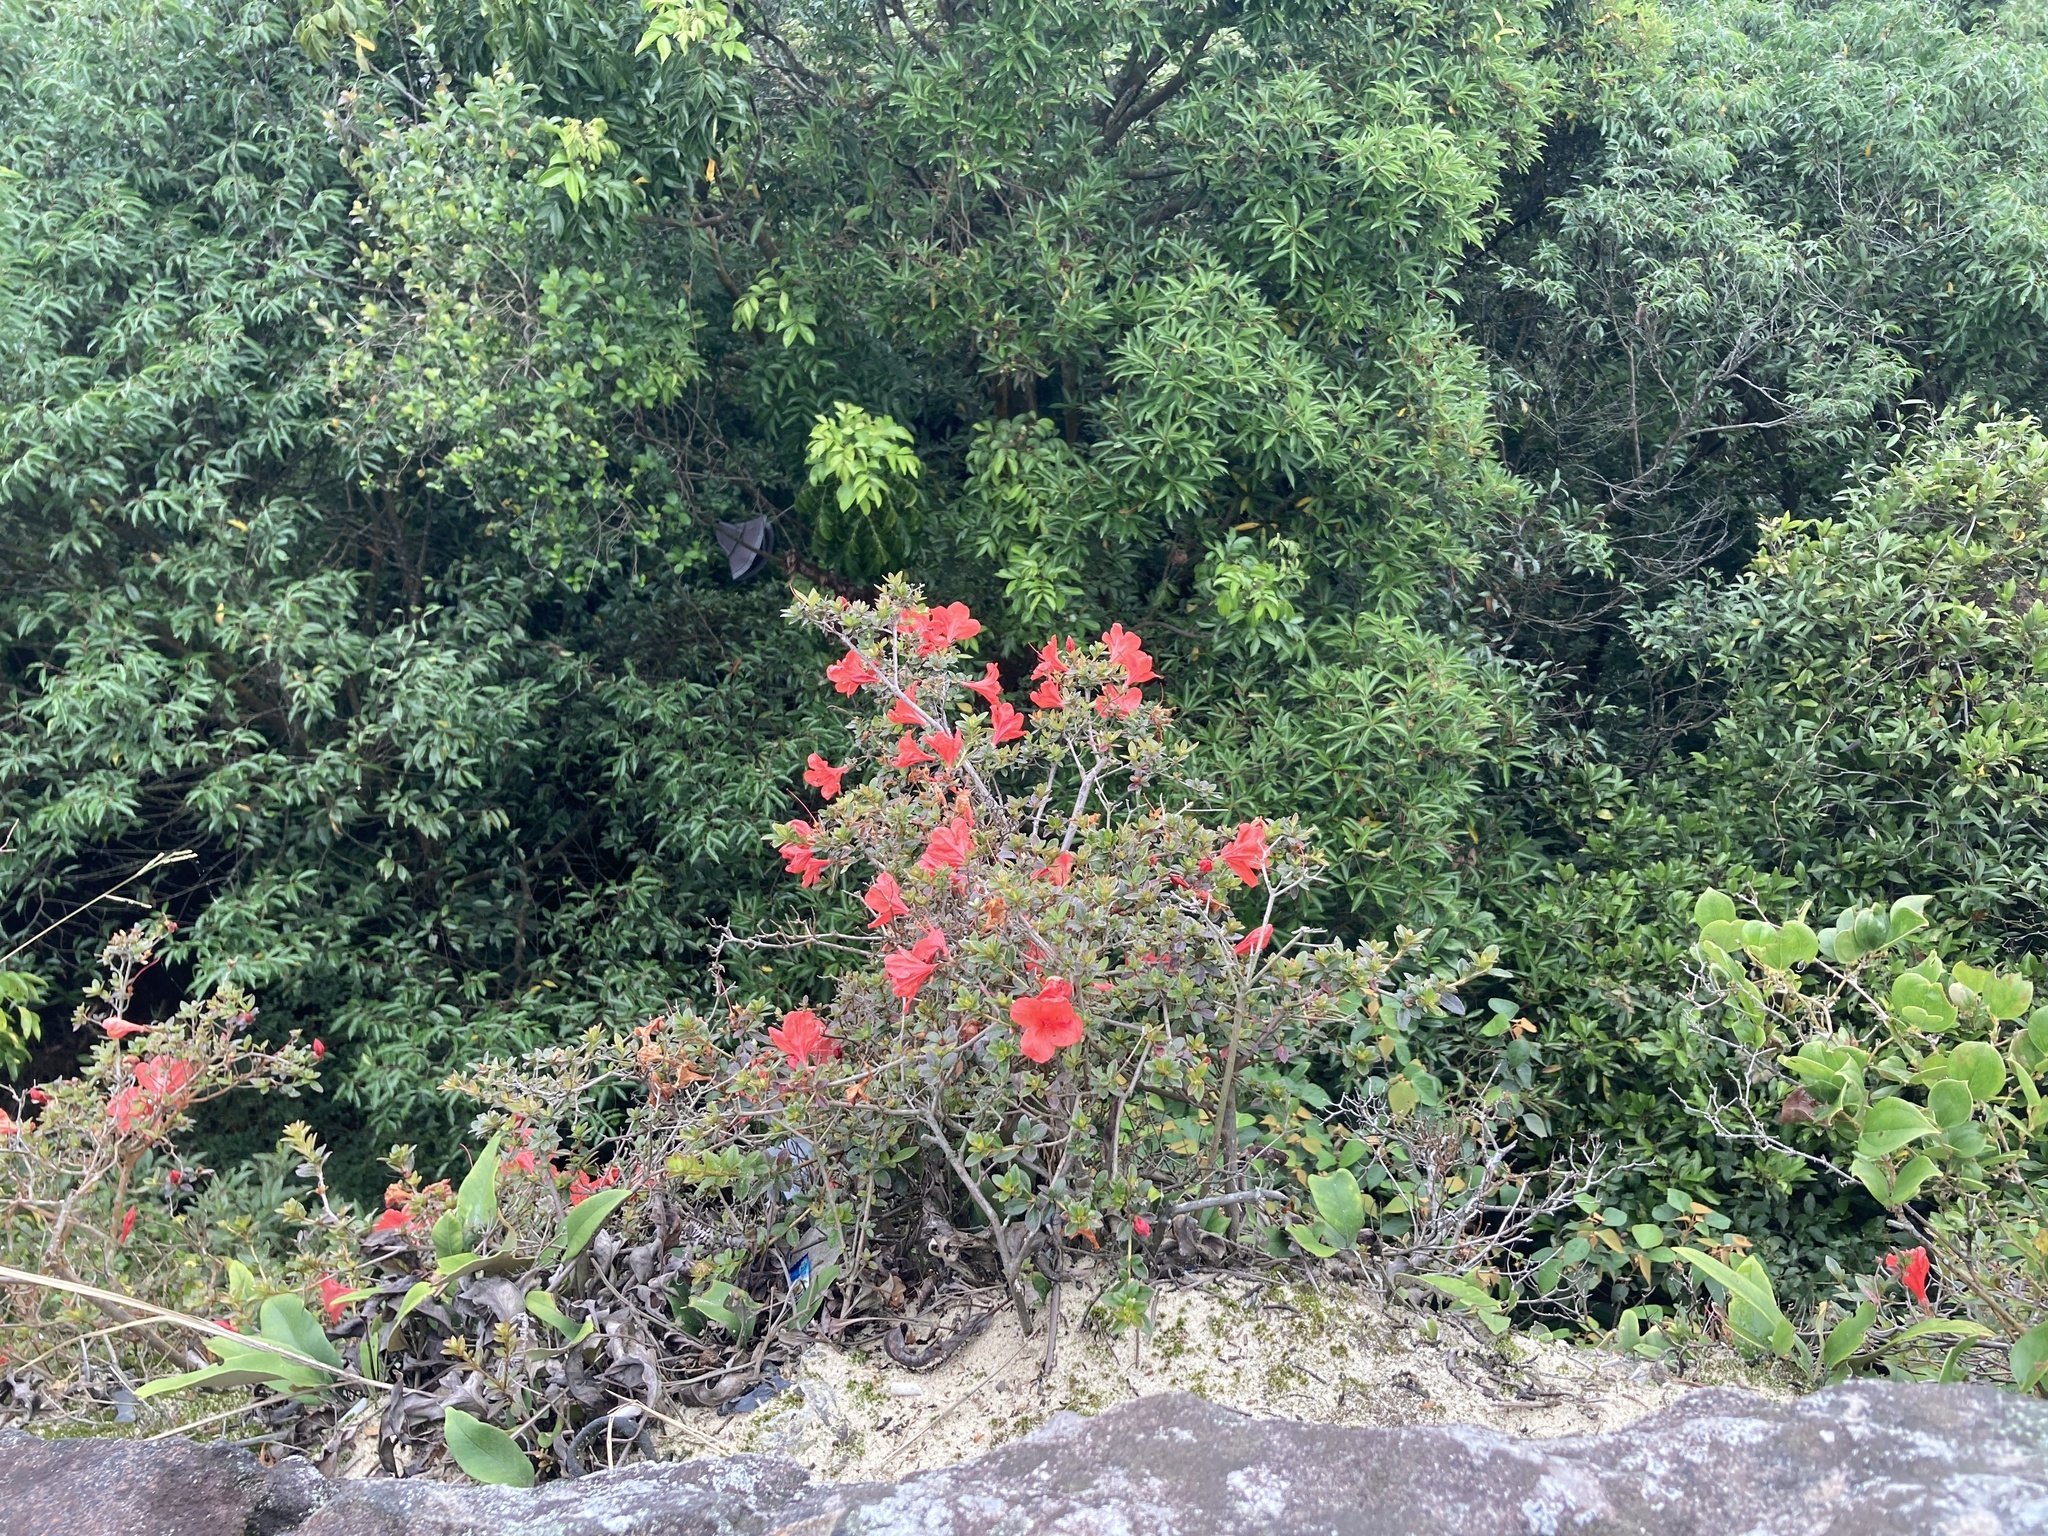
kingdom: Plantae
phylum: Tracheophyta
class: Magnoliopsida
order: Ericales
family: Ericaceae
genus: Rhododendron
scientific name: Rhododendron nakaharae
